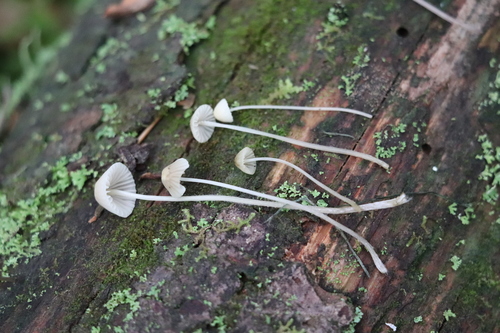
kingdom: Fungi
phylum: Basidiomycota
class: Agaricomycetes
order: Agaricales
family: Mycenaceae
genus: Mycena
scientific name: Mycena
